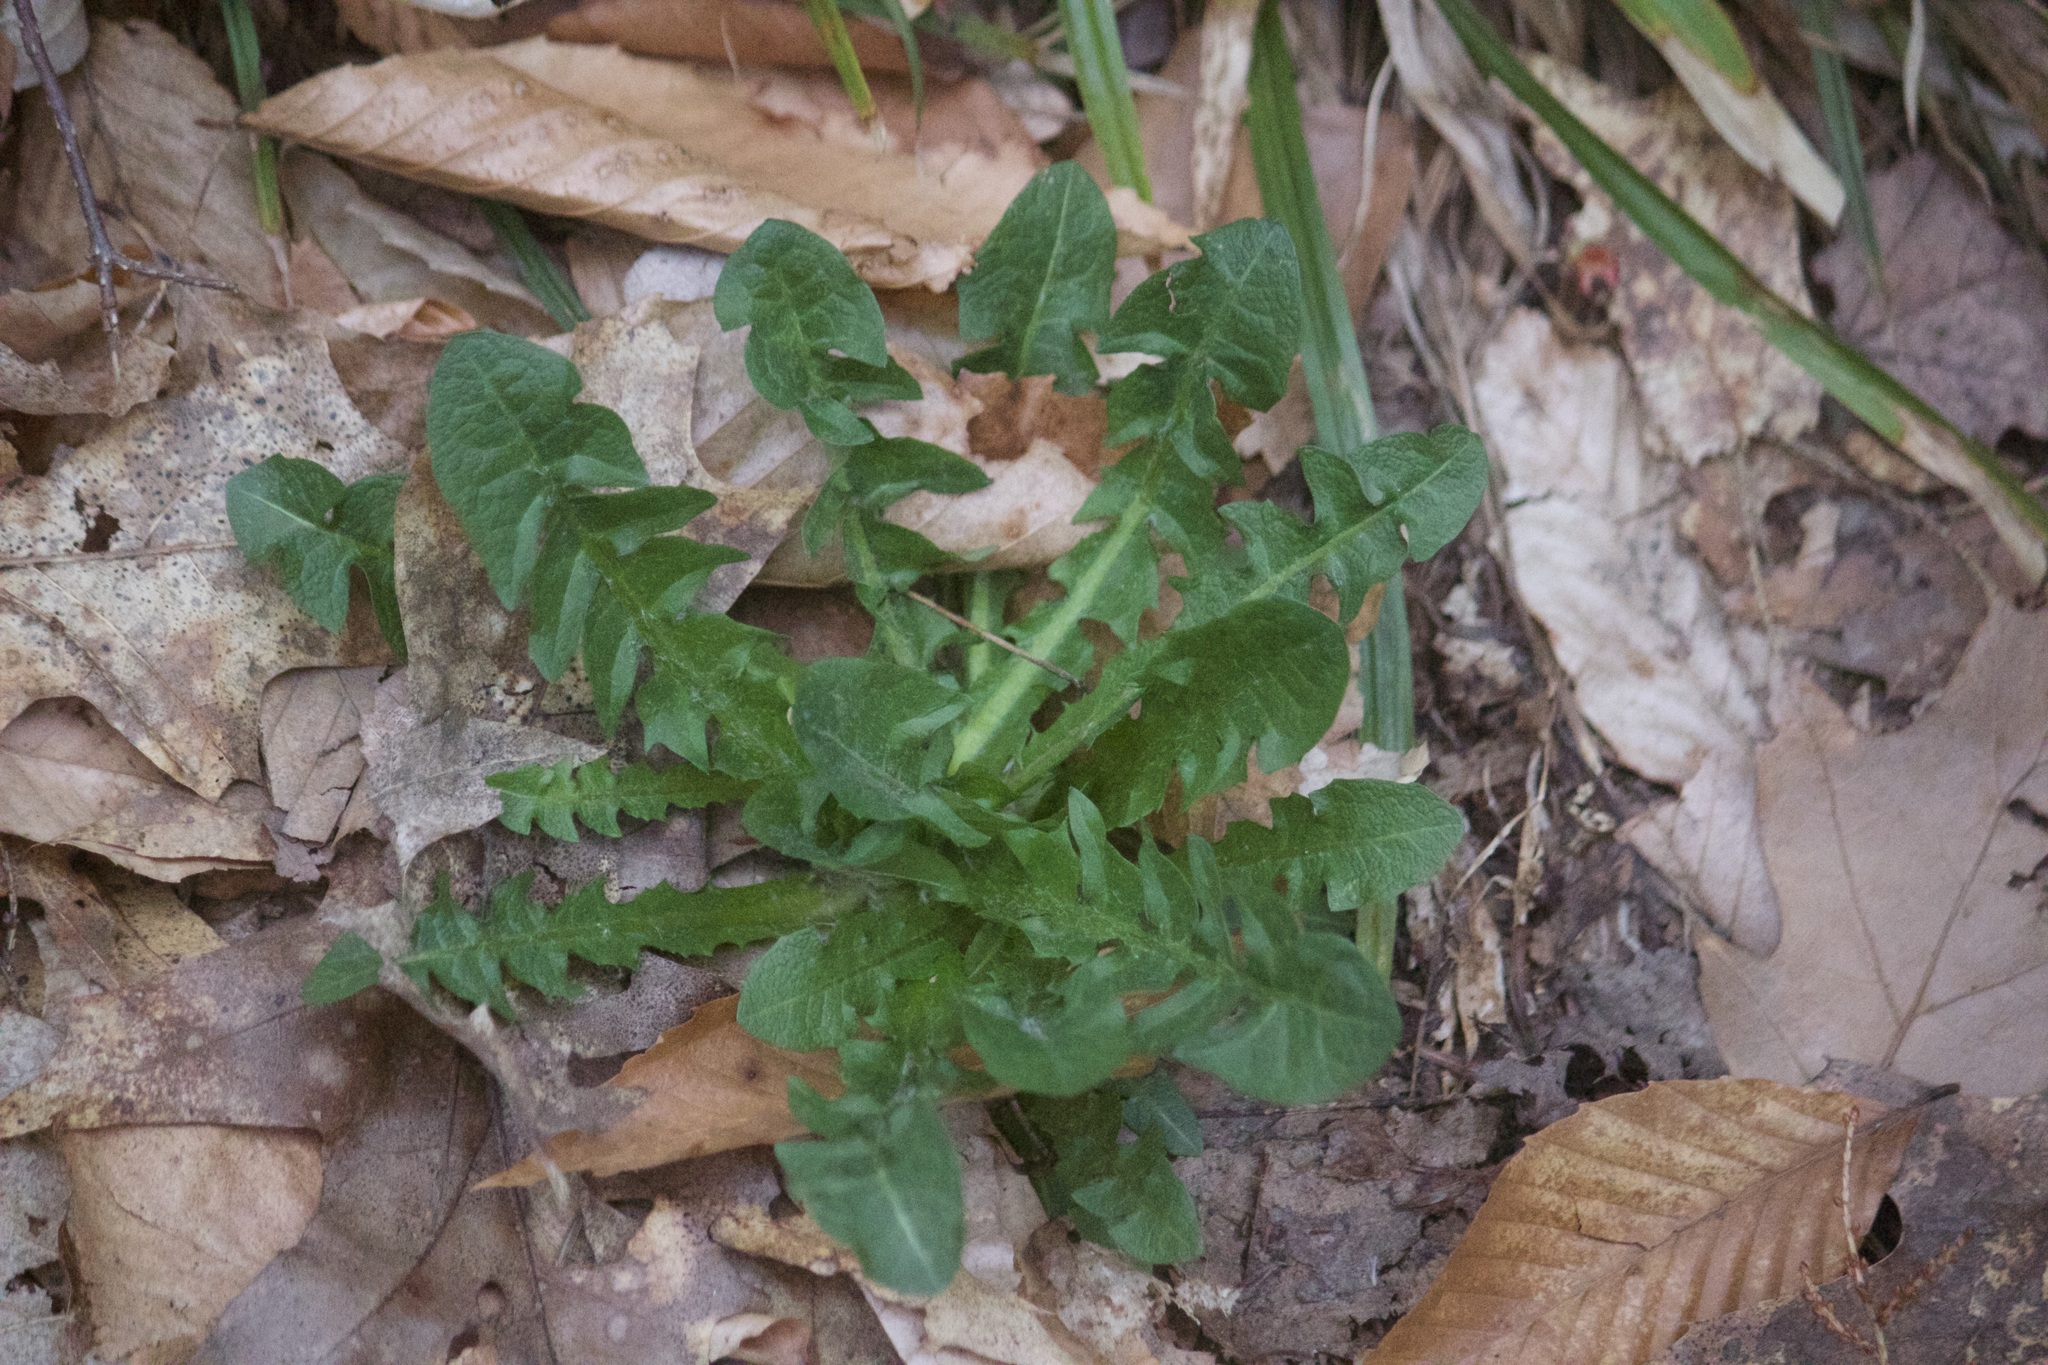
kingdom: Plantae
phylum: Tracheophyta
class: Magnoliopsida
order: Asterales
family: Asteraceae
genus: Taraxacum
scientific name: Taraxacum officinale
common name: Common dandelion
